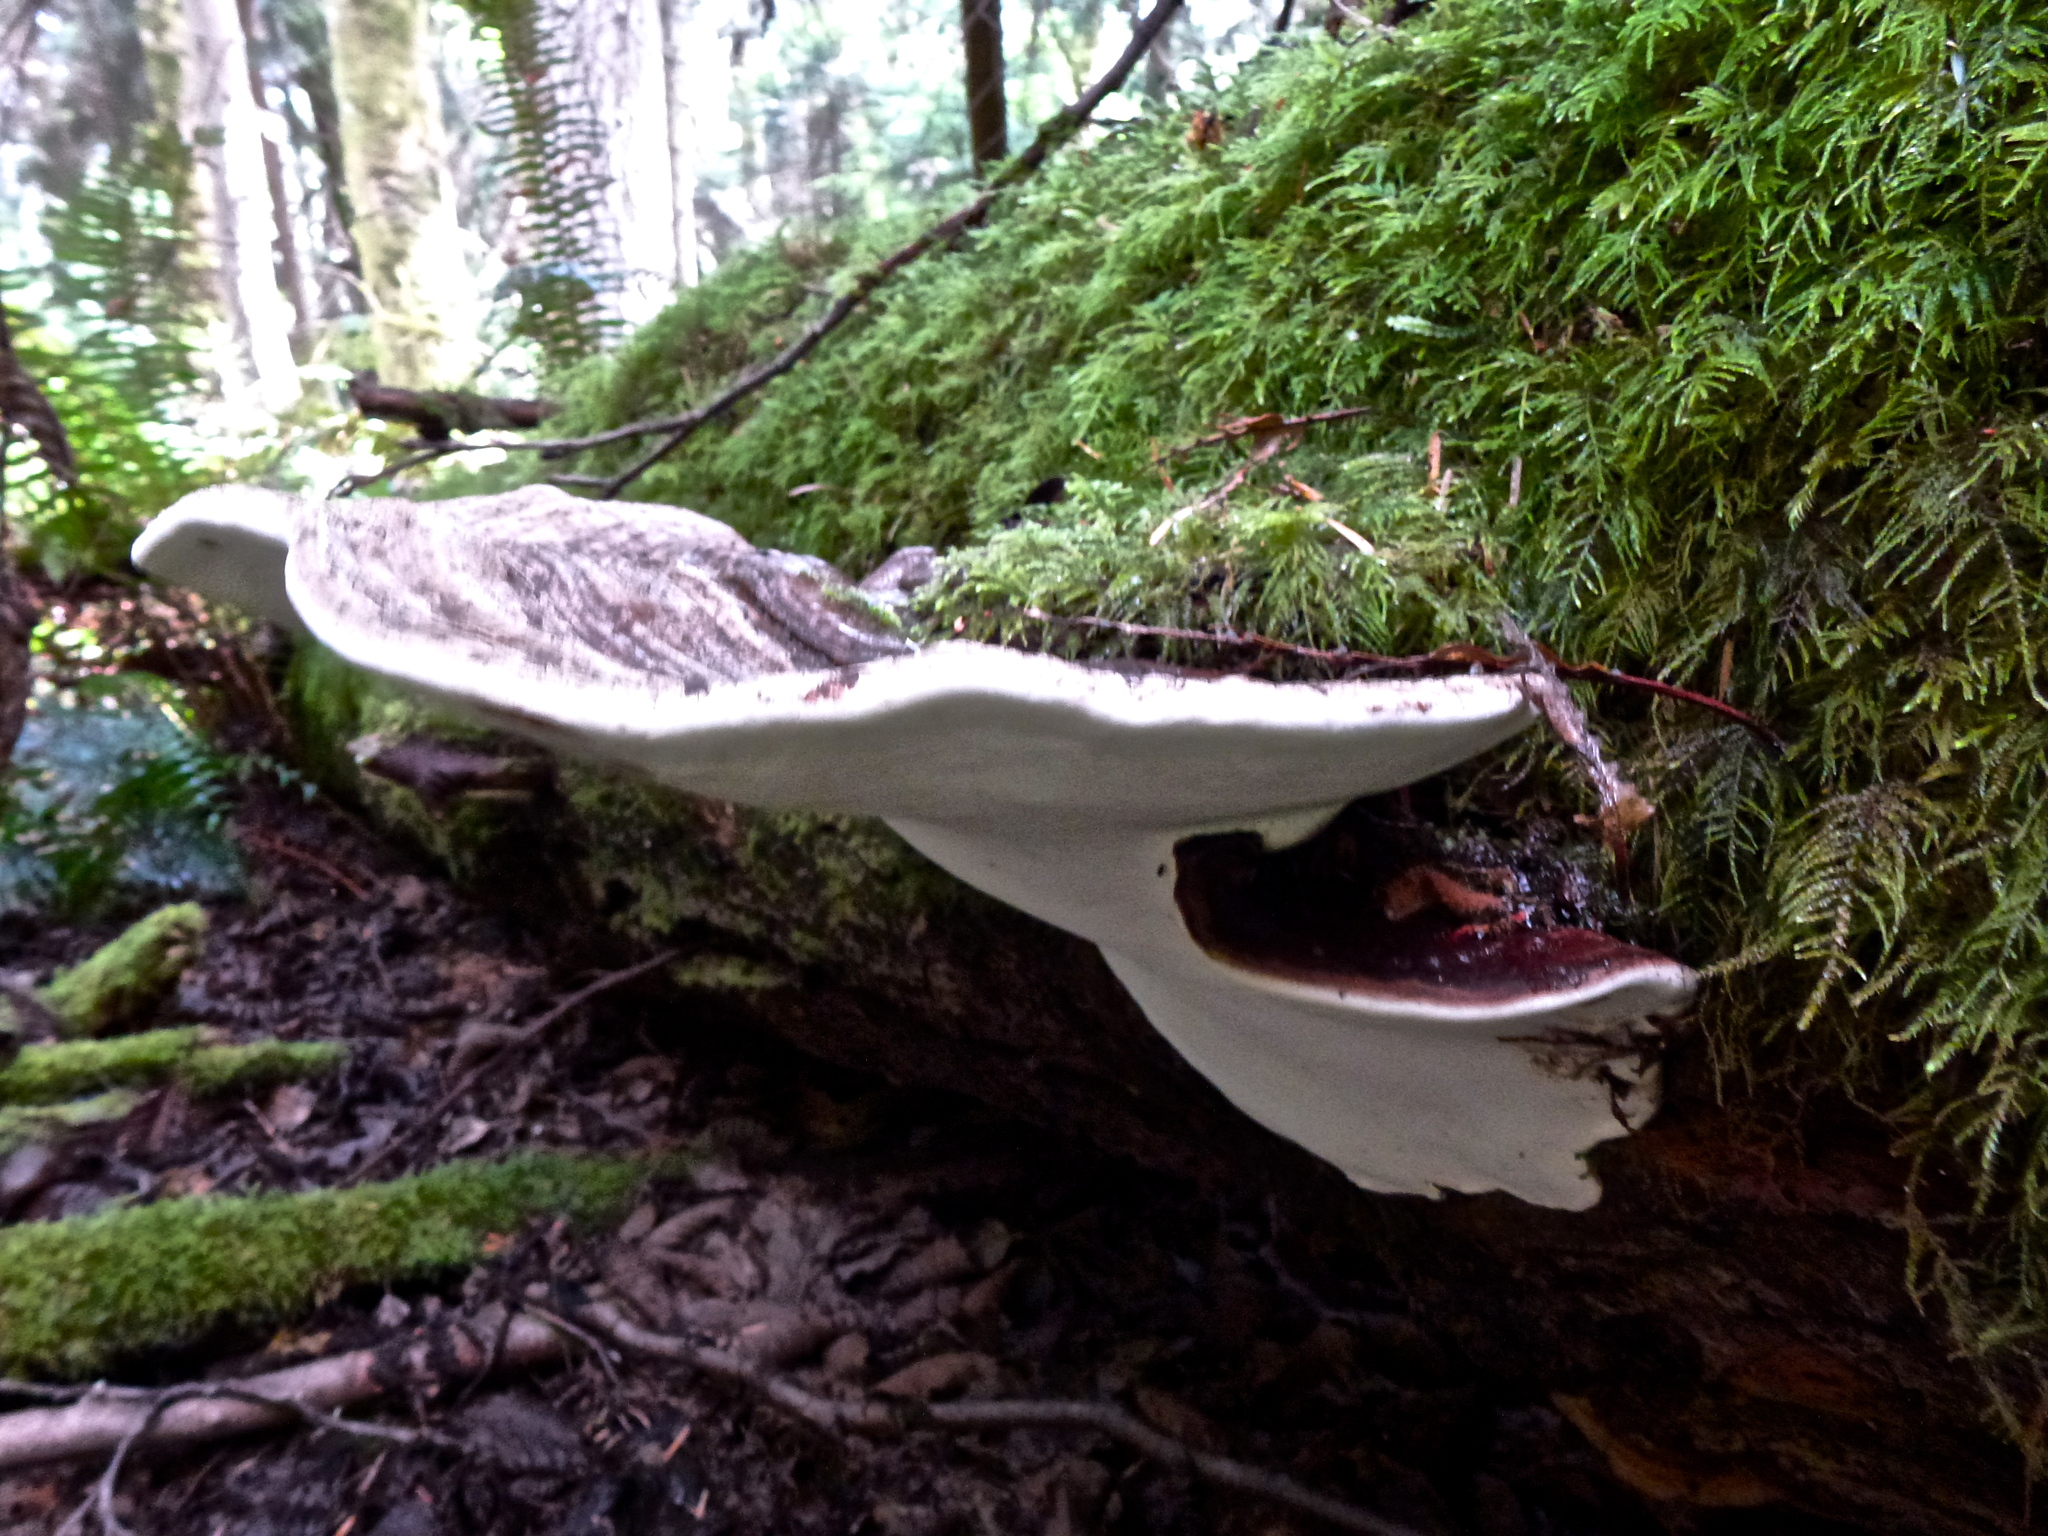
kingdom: Fungi
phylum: Basidiomycota
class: Agaricomycetes
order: Polyporales
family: Polyporaceae
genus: Ganoderma
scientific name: Ganoderma applanatum
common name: Artist's bracket
